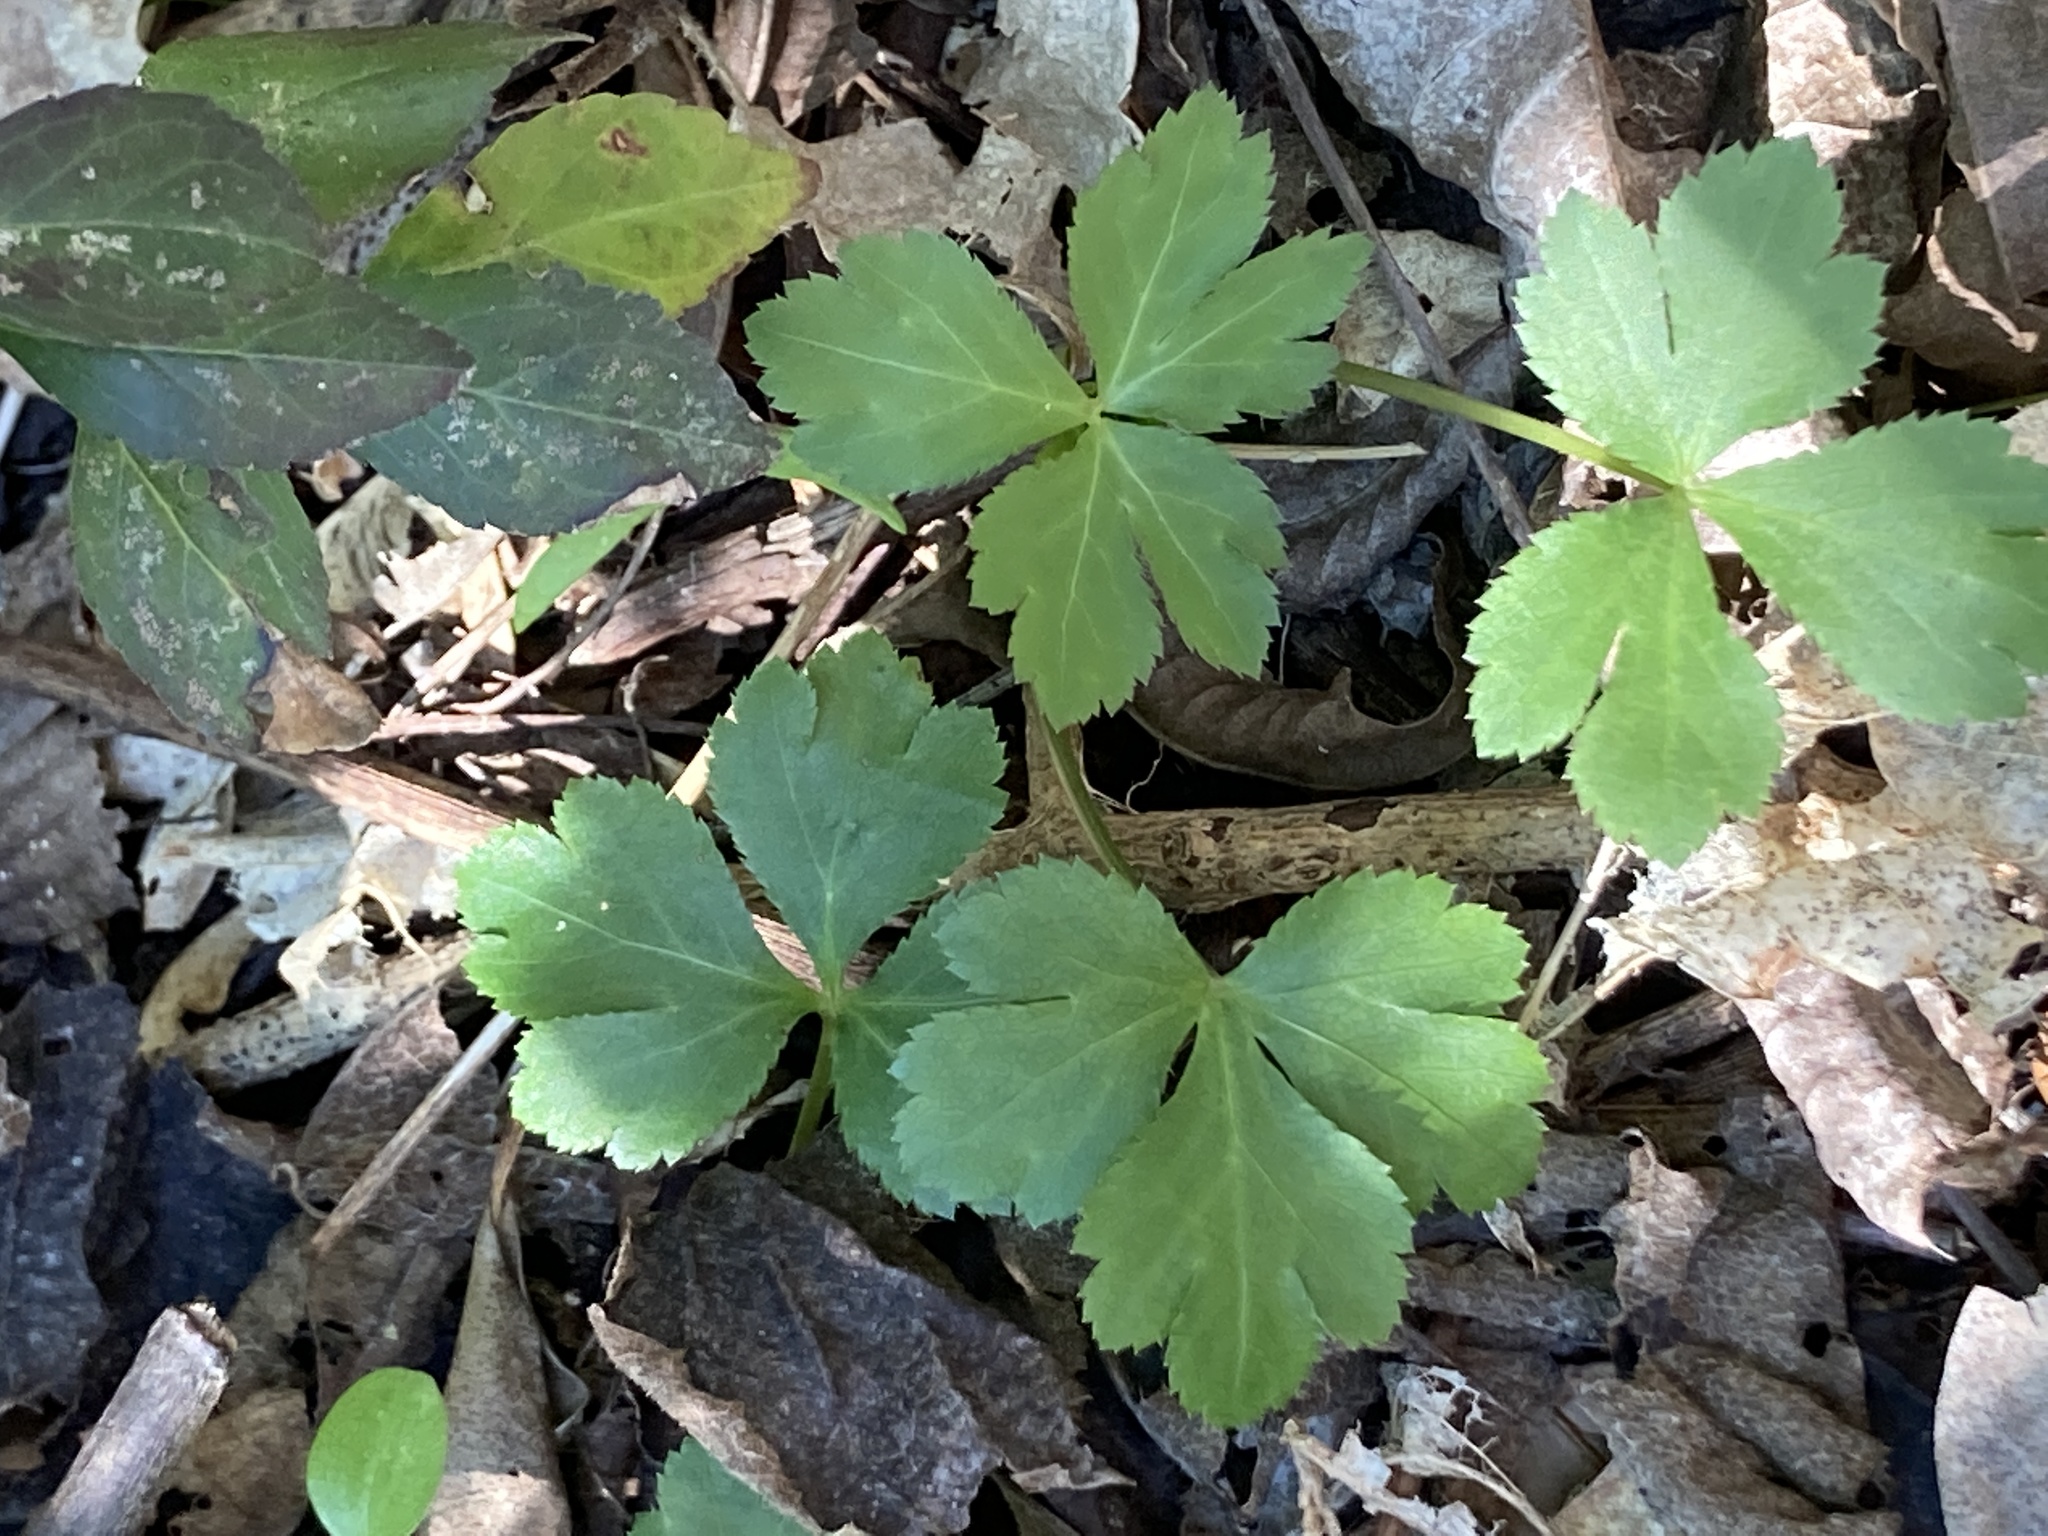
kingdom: Plantae
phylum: Tracheophyta
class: Magnoliopsida
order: Apiales
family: Apiaceae
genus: Sanicula
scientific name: Sanicula canadensis
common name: Canada sanicle
